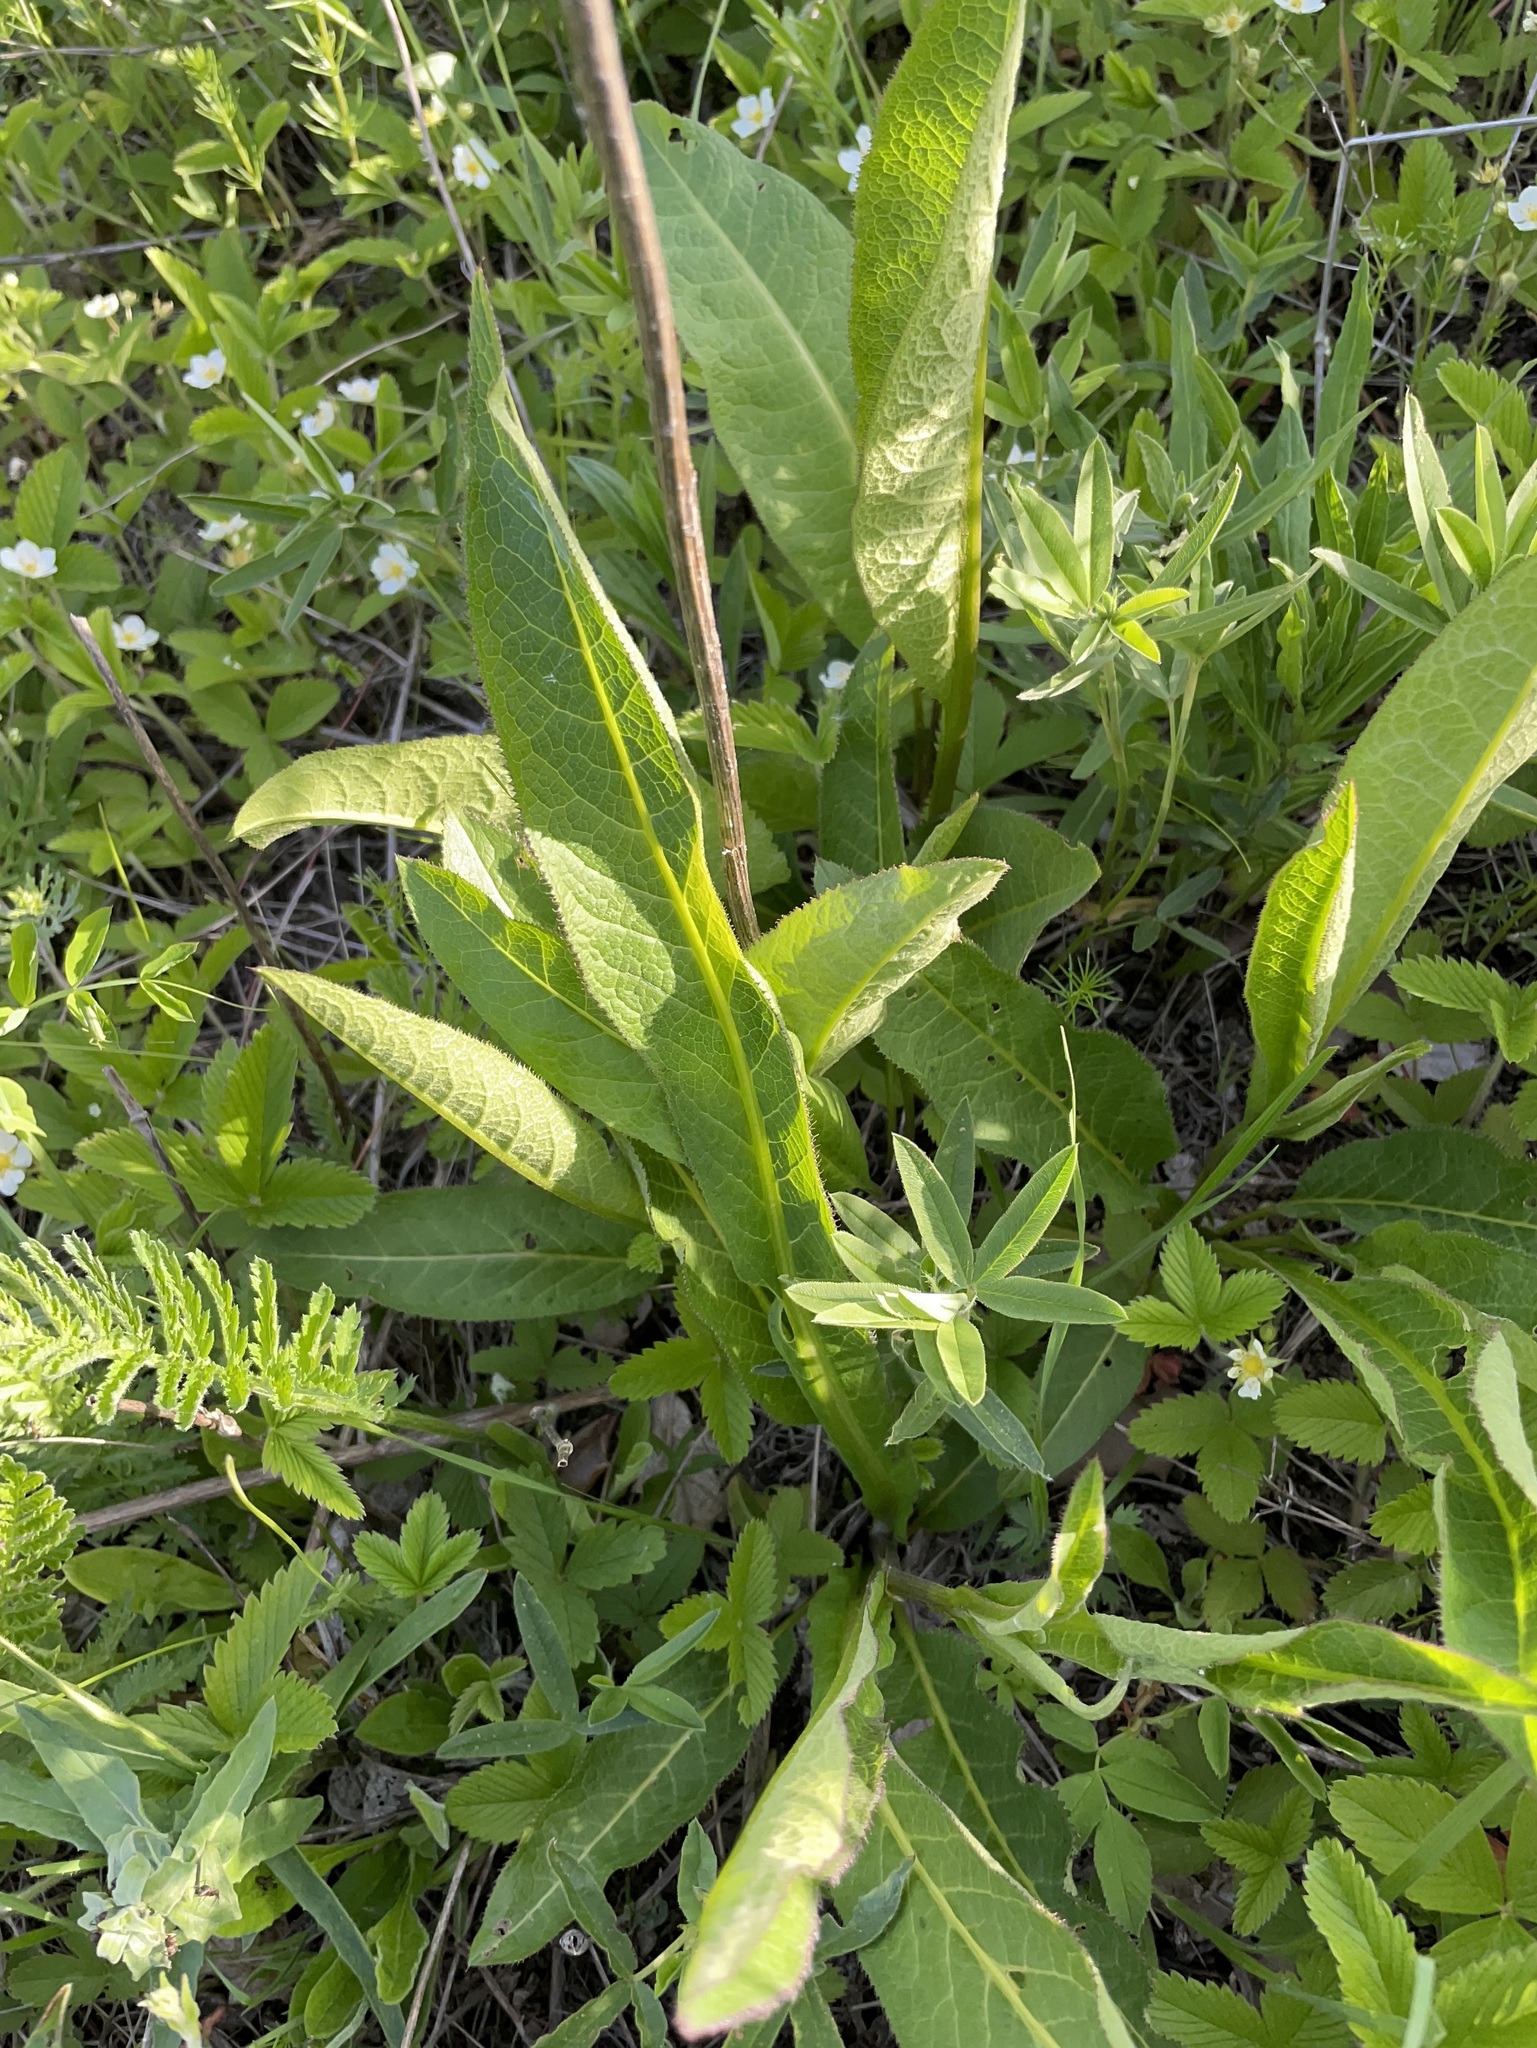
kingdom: Plantae
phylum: Tracheophyta
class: Magnoliopsida
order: Asterales
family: Asteraceae
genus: Serratula
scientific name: Serratula tinctoria
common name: Saw-wort
